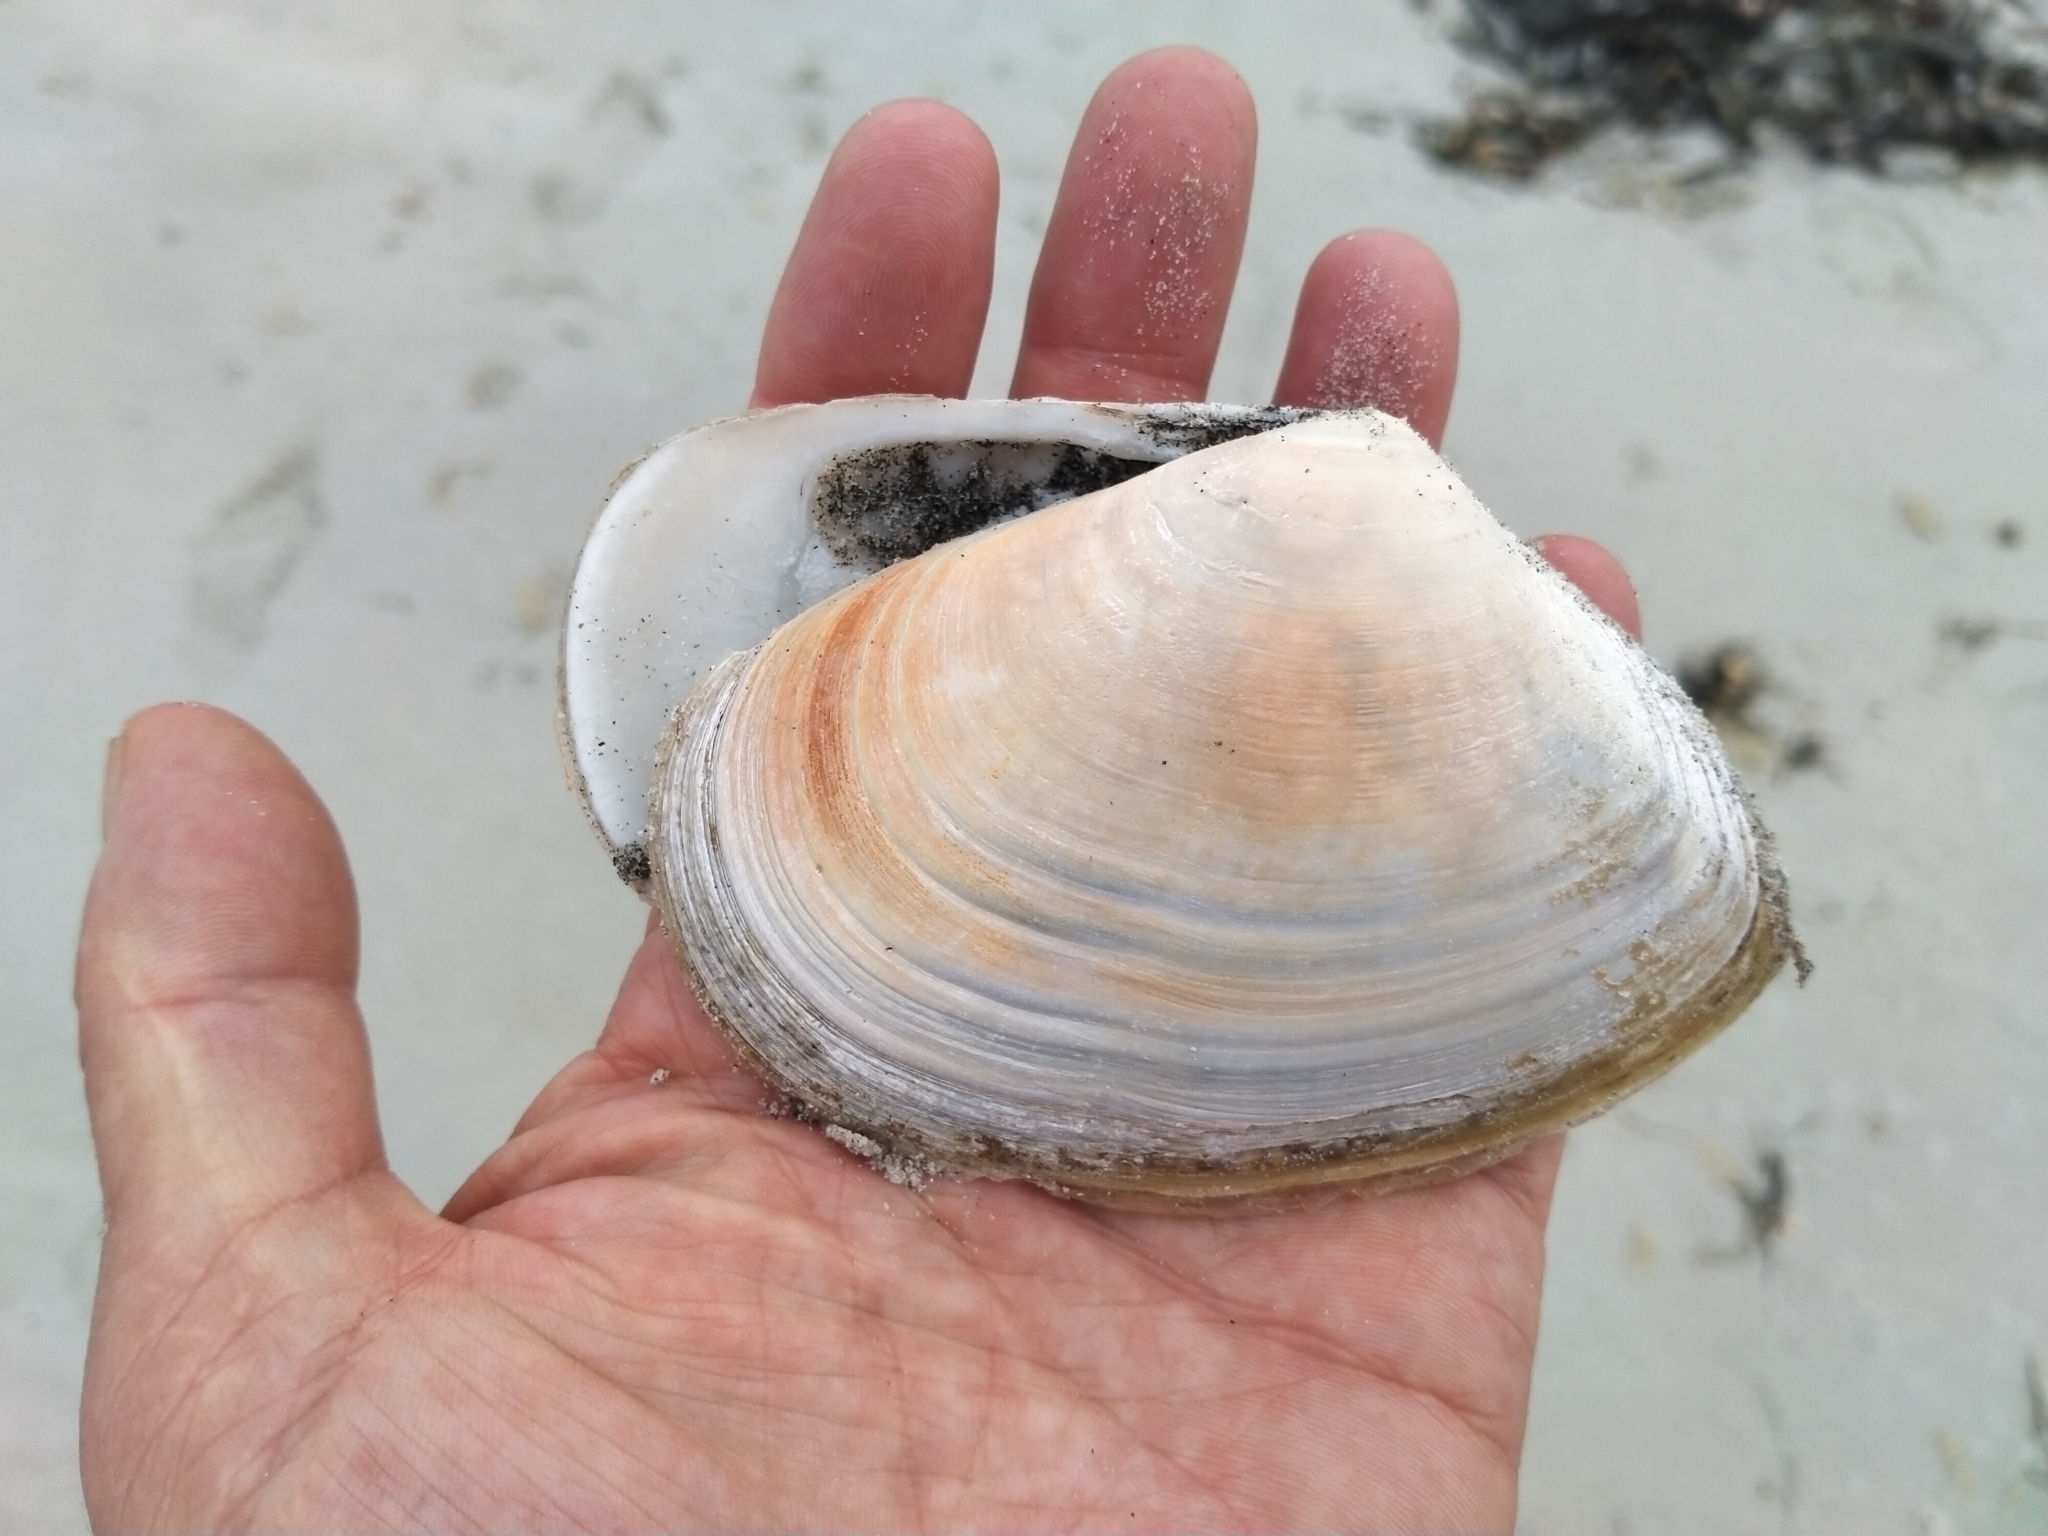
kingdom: Animalia
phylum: Mollusca
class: Bivalvia
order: Venerida
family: Mesodesmatidae
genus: Paphies
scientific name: Paphies donacina
